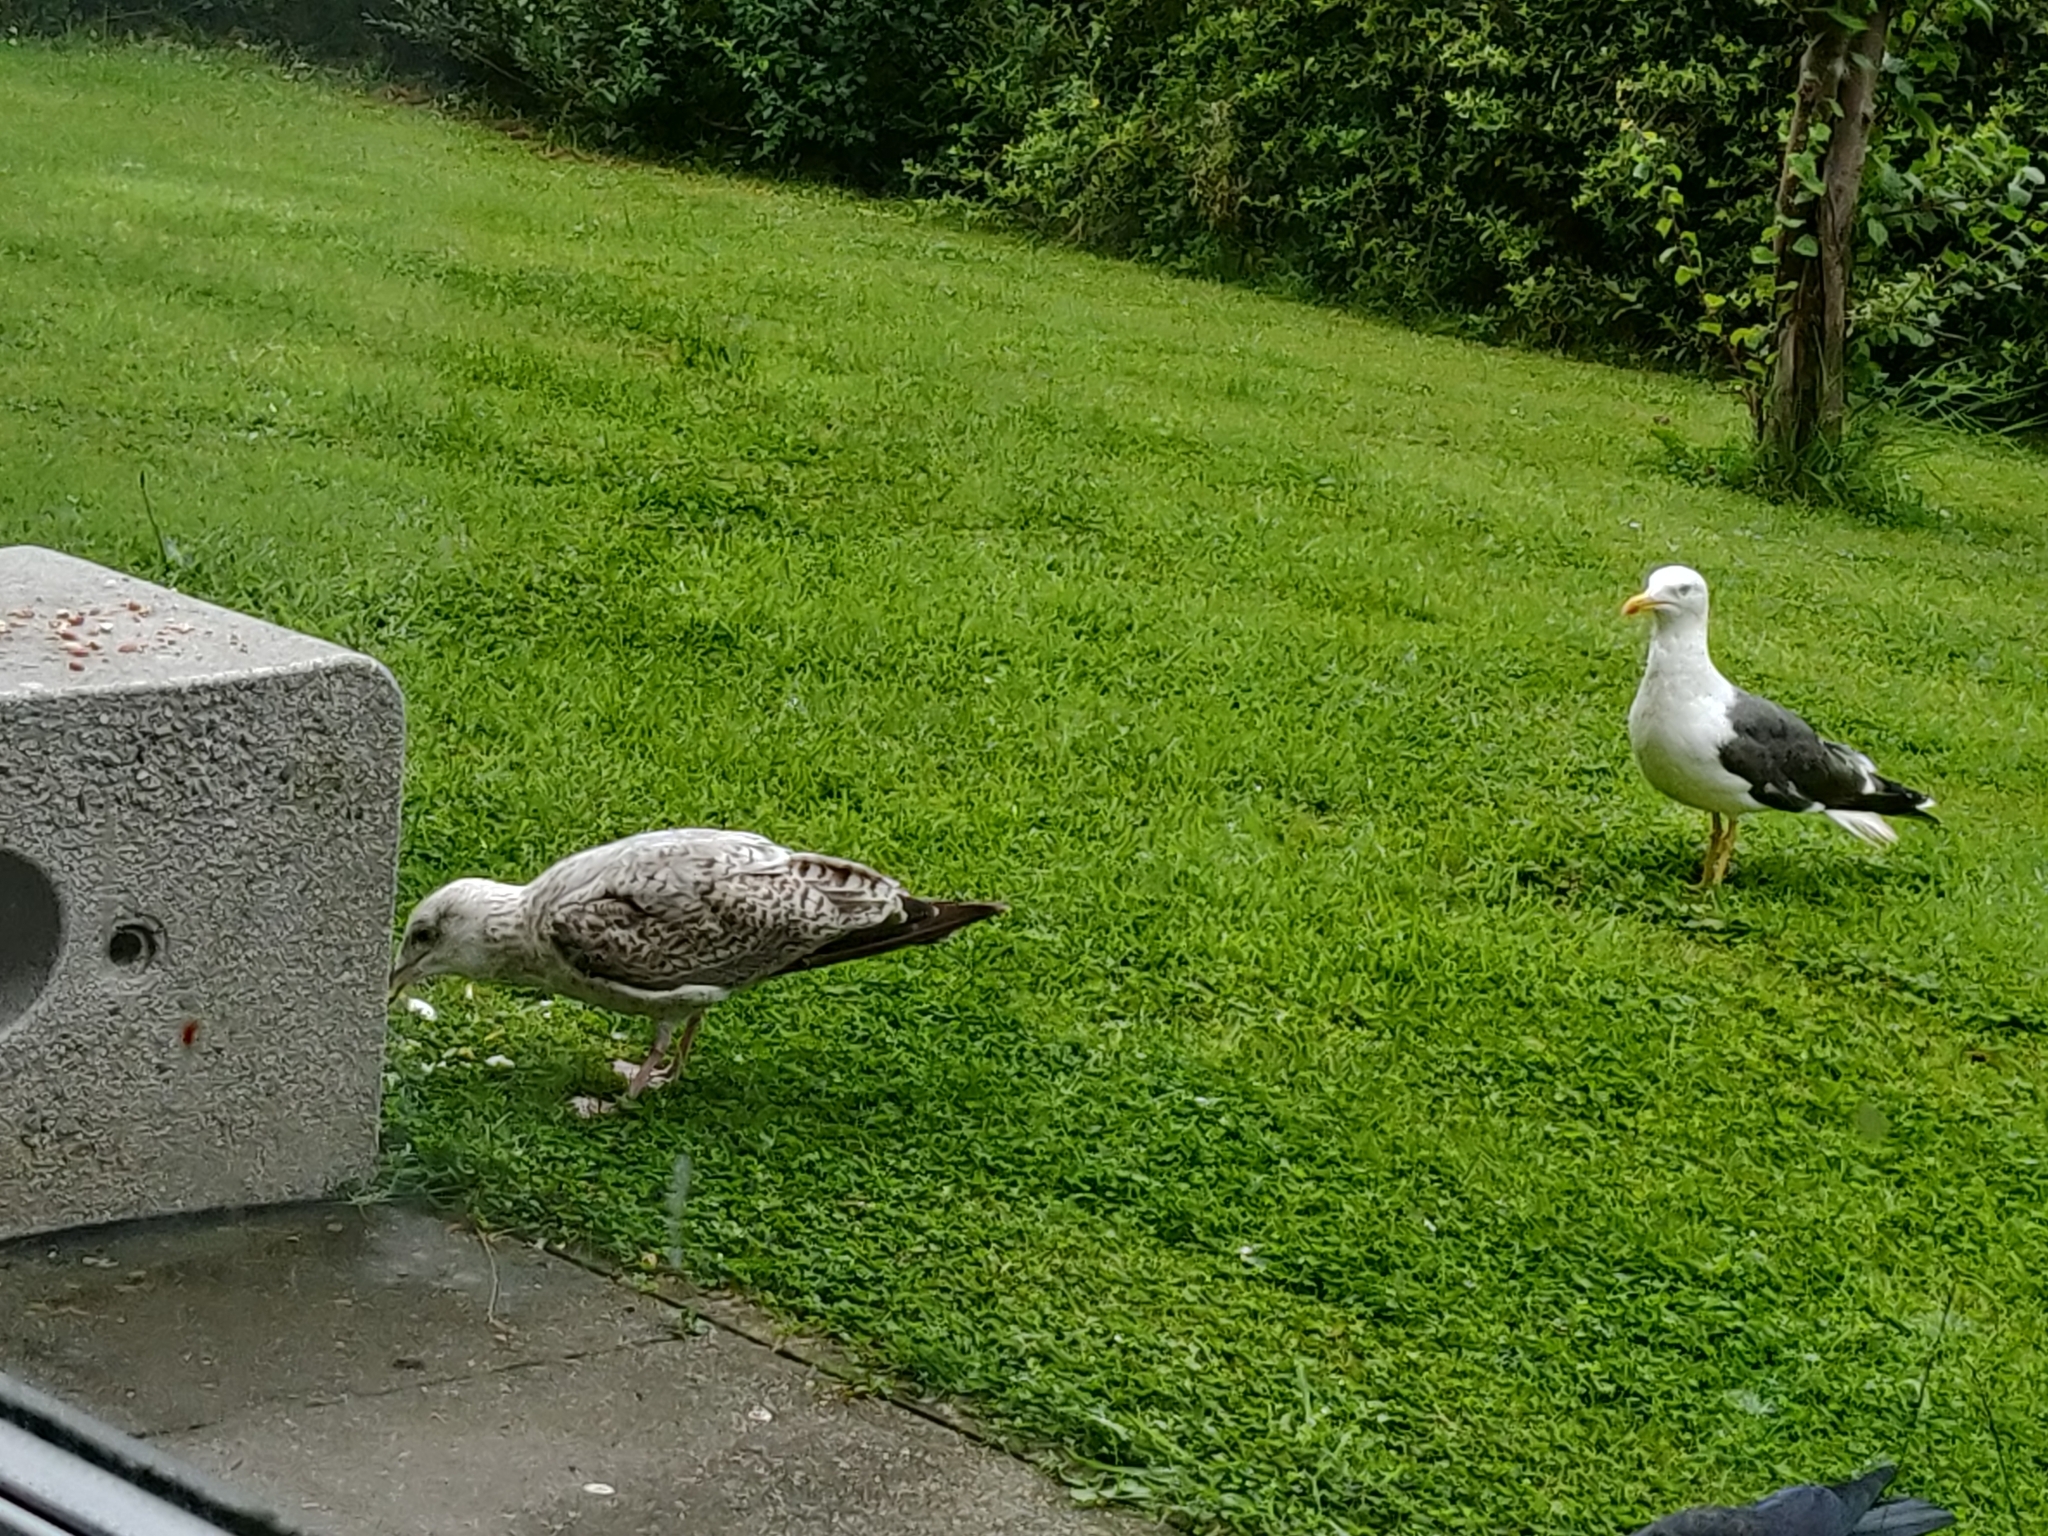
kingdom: Animalia
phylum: Chordata
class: Aves
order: Charadriiformes
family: Laridae
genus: Larus
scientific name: Larus fuscus
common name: Lesser black-backed gull
